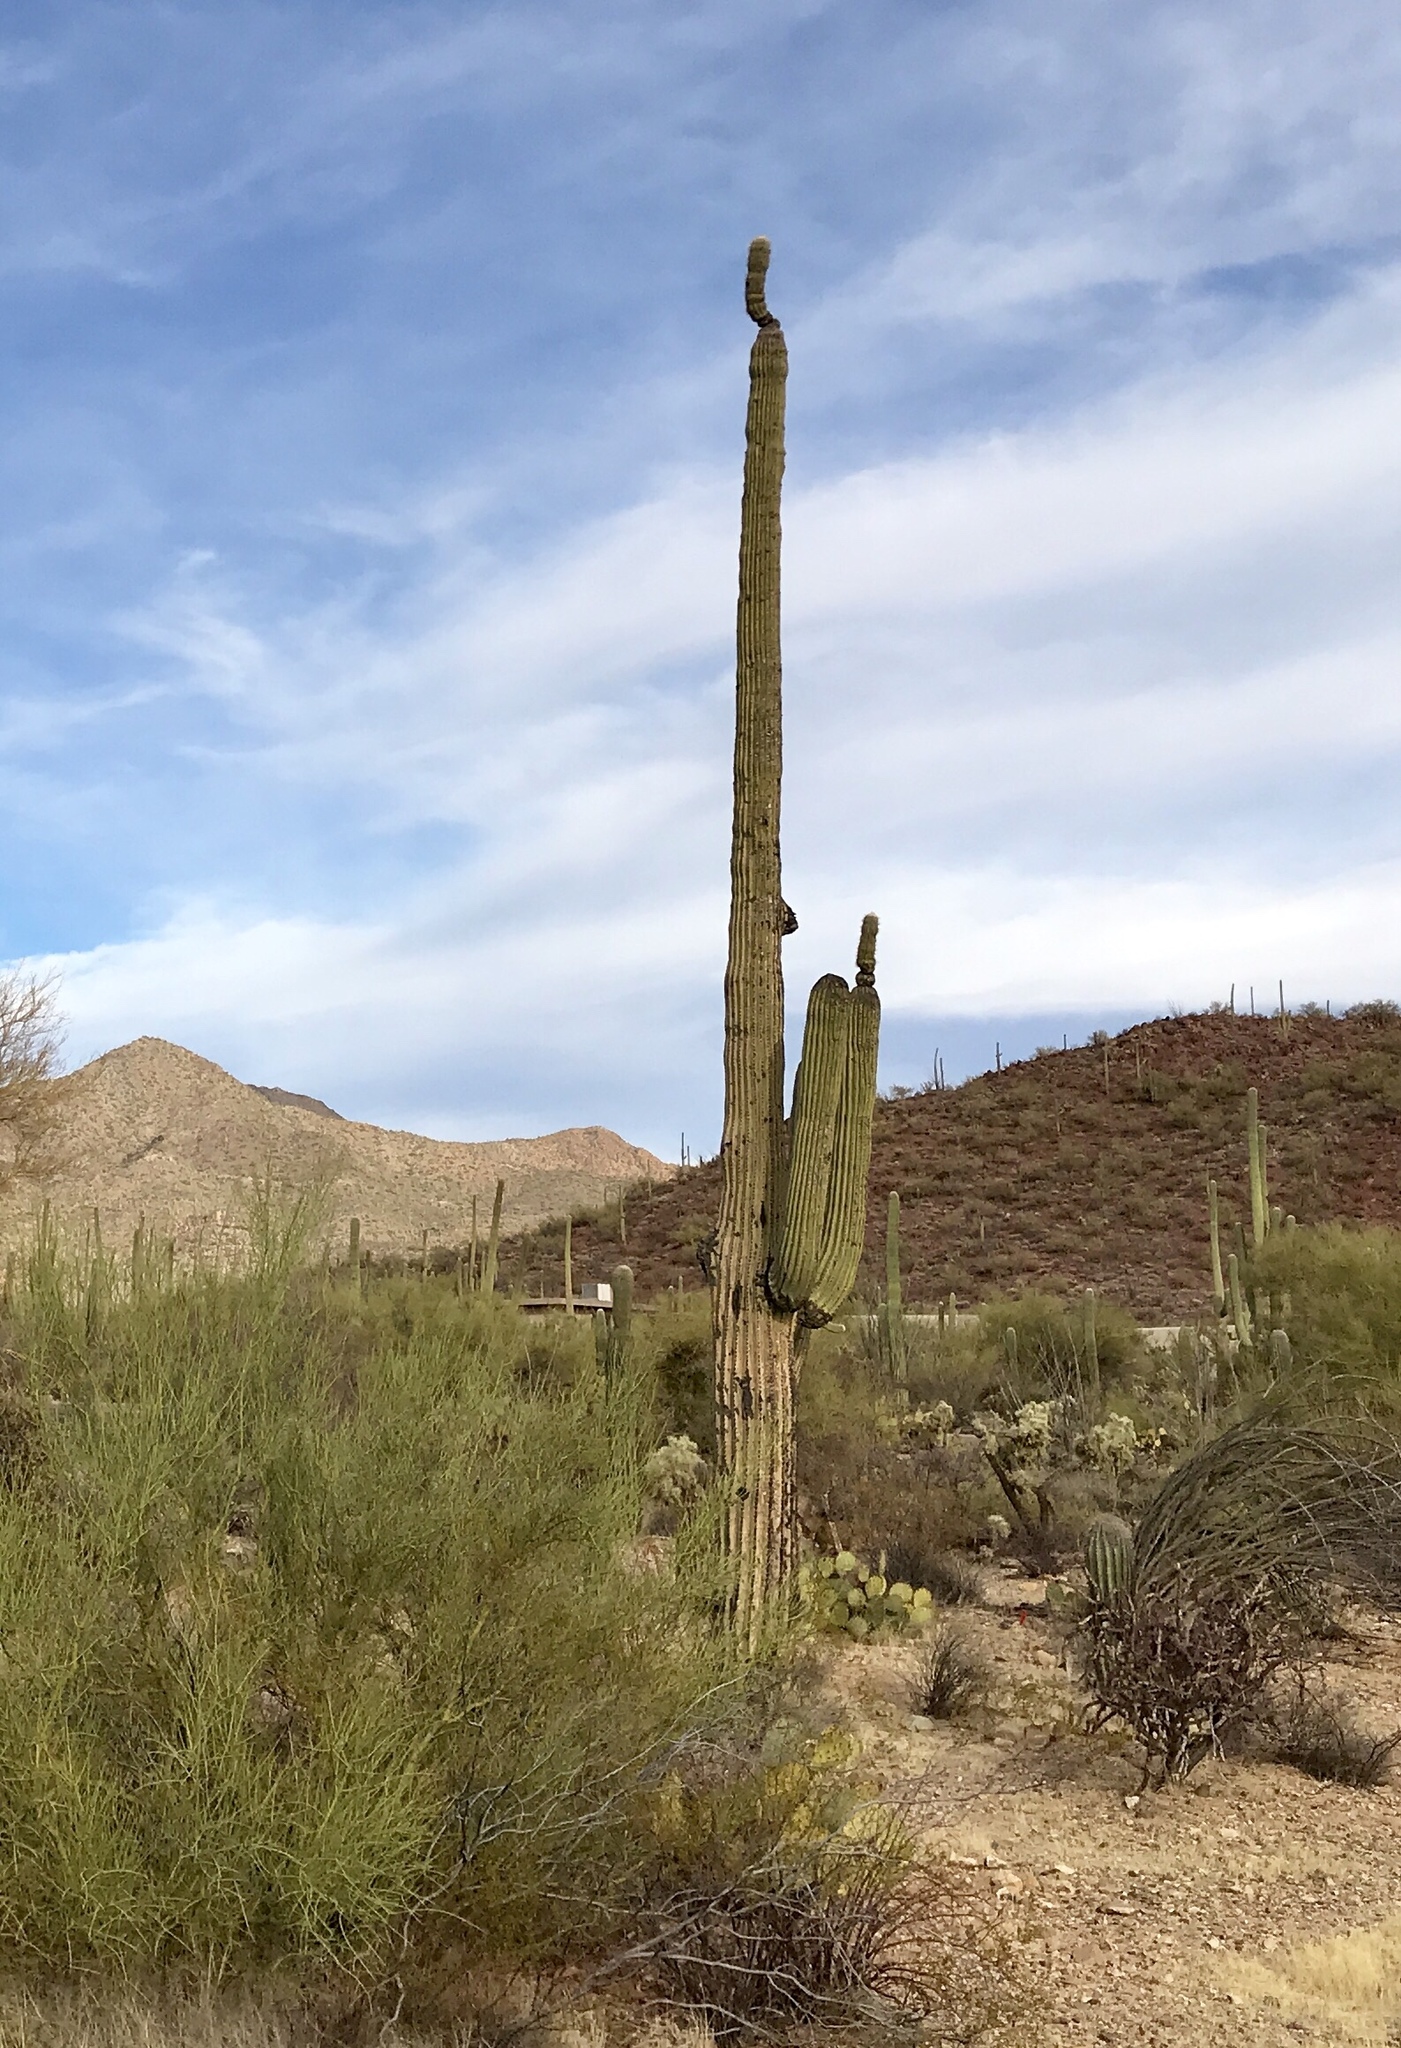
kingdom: Plantae
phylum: Tracheophyta
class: Magnoliopsida
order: Caryophyllales
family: Cactaceae
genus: Carnegiea
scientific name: Carnegiea gigantea
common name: Saguaro
